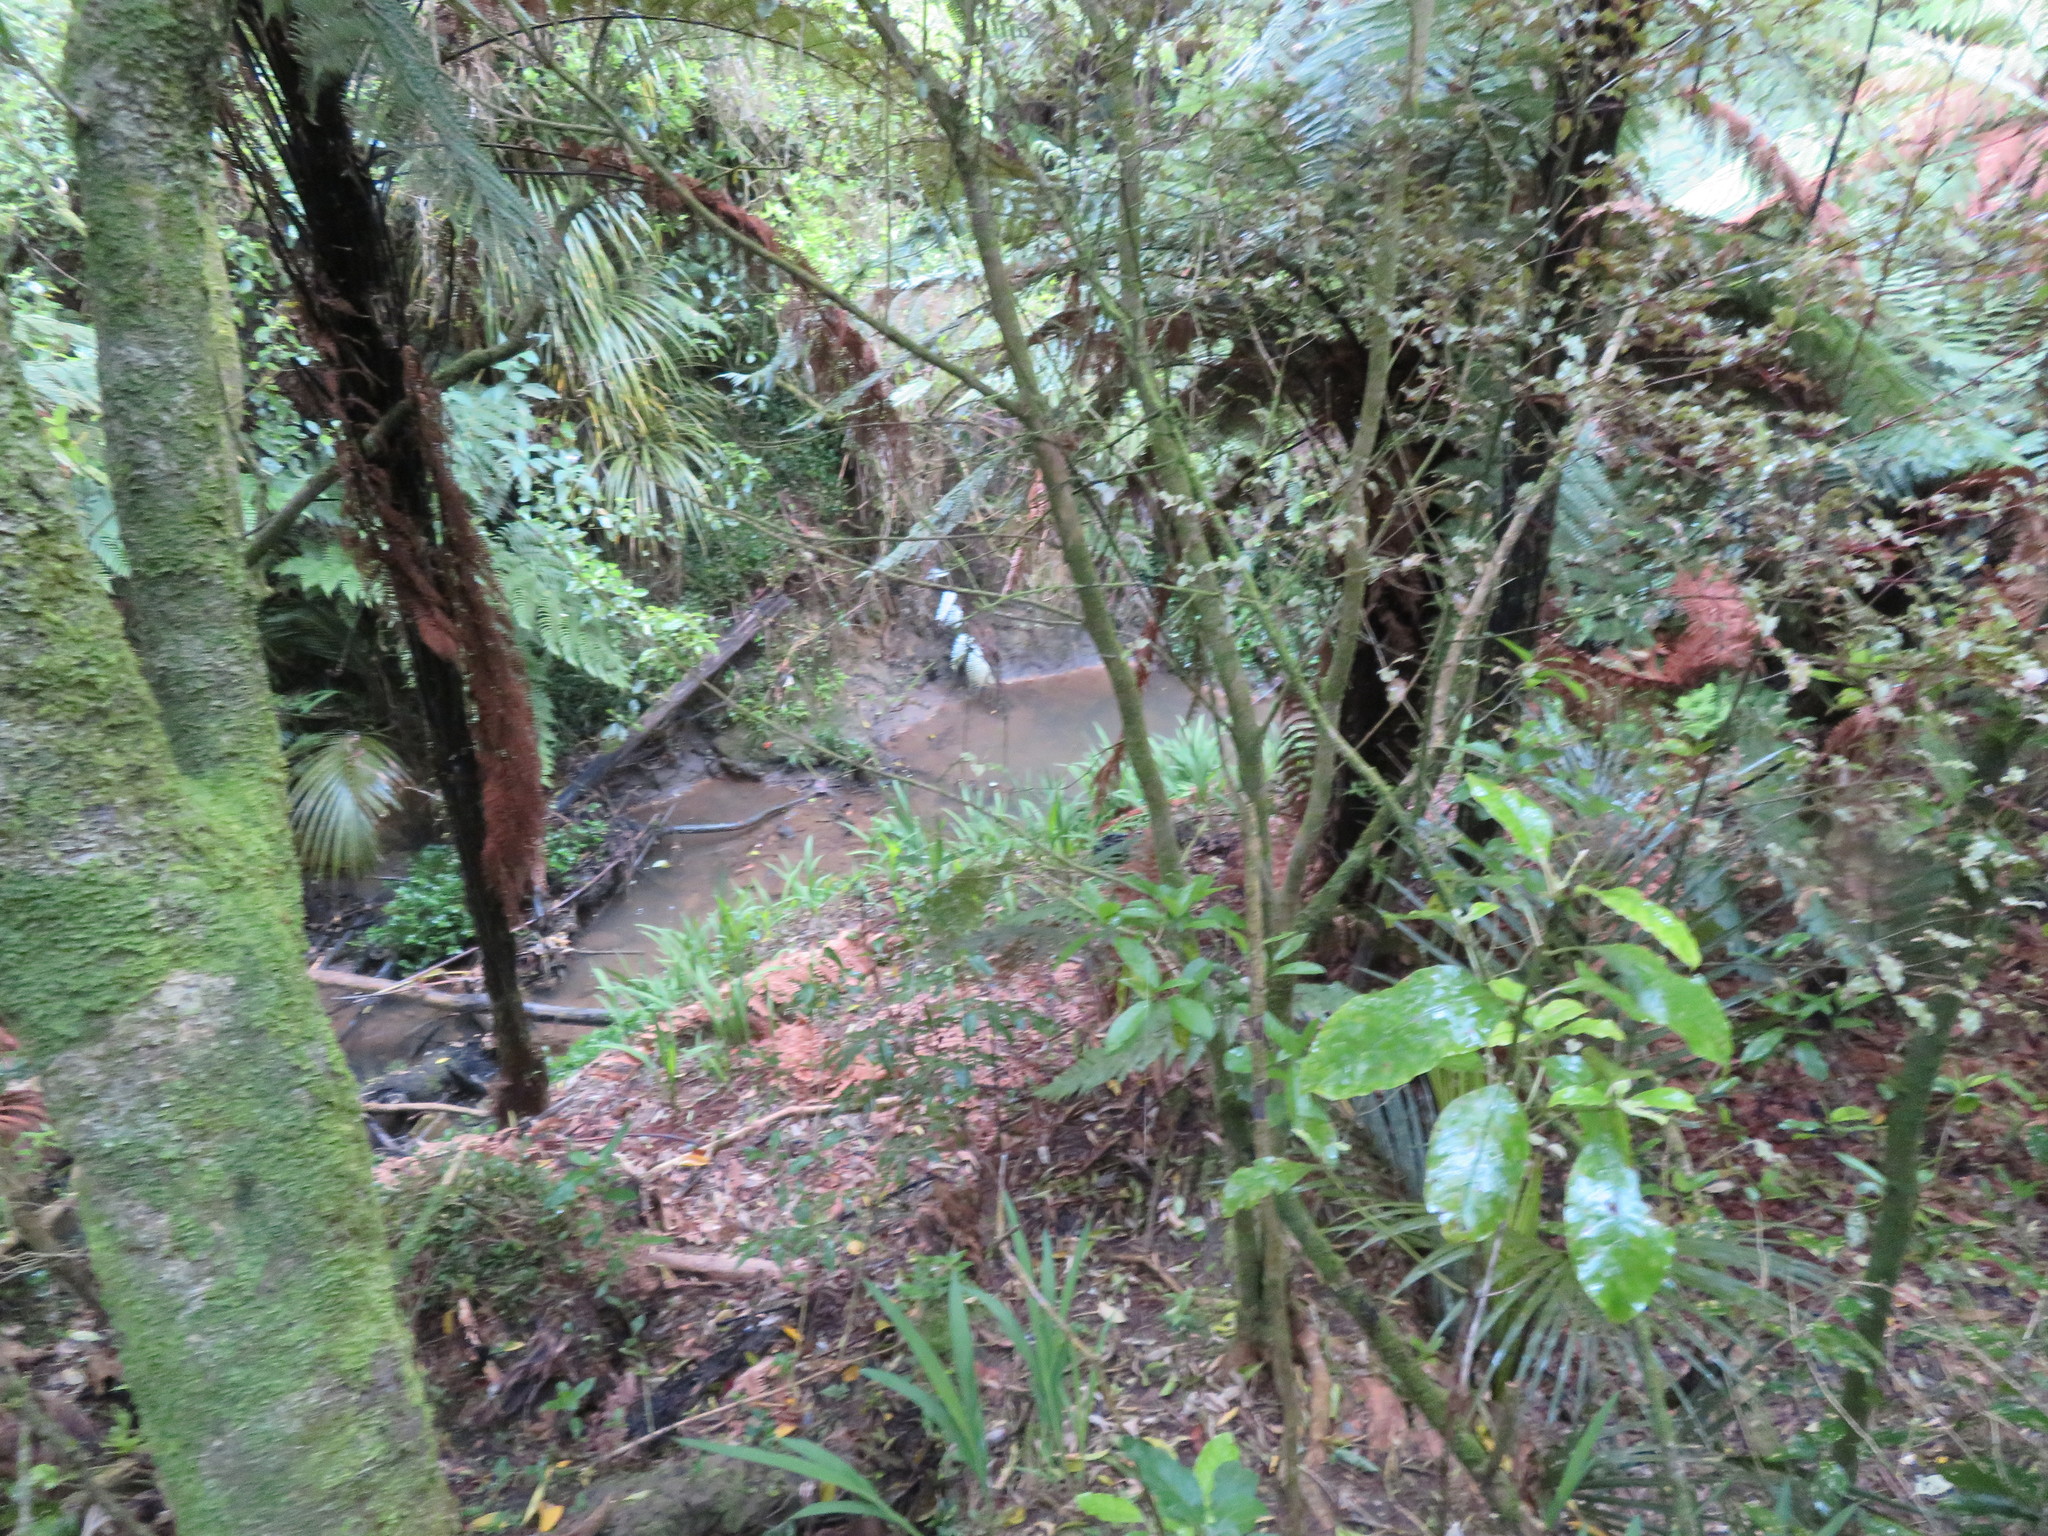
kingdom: Plantae
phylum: Tracheophyta
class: Magnoliopsida
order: Gentianales
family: Rubiaceae
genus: Coprosma
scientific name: Coprosma autumnalis
